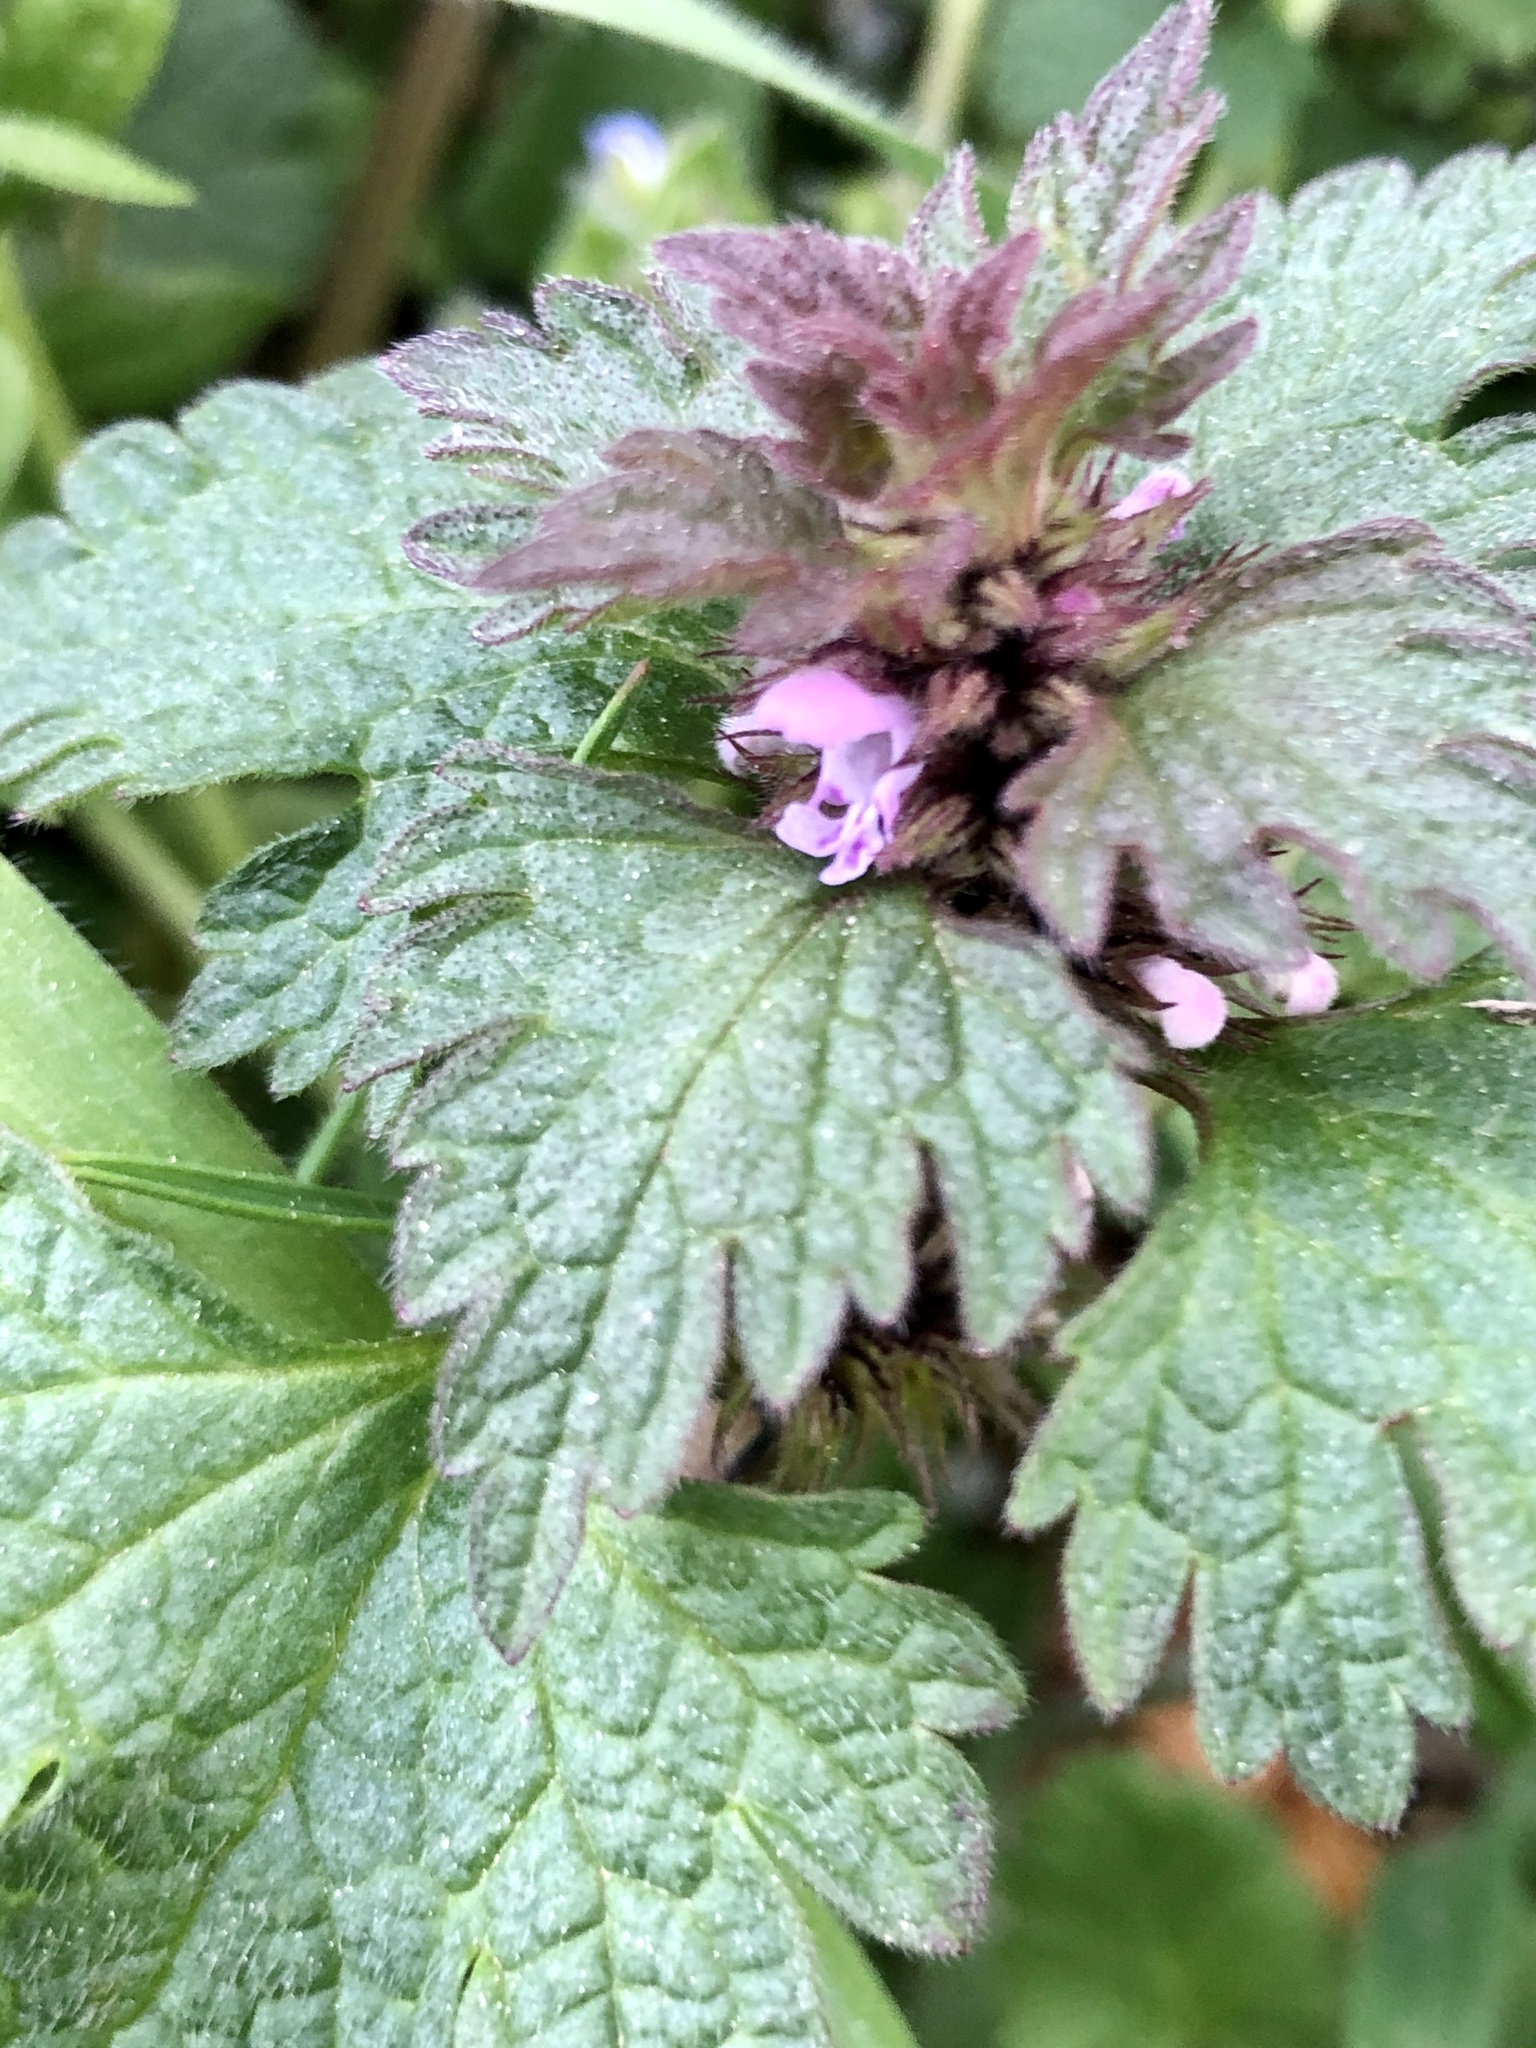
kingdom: Plantae
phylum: Tracheophyta
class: Magnoliopsida
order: Lamiales
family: Lamiaceae
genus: Lamium
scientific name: Lamium hybridum
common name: Cut-leaved dead-nettle
